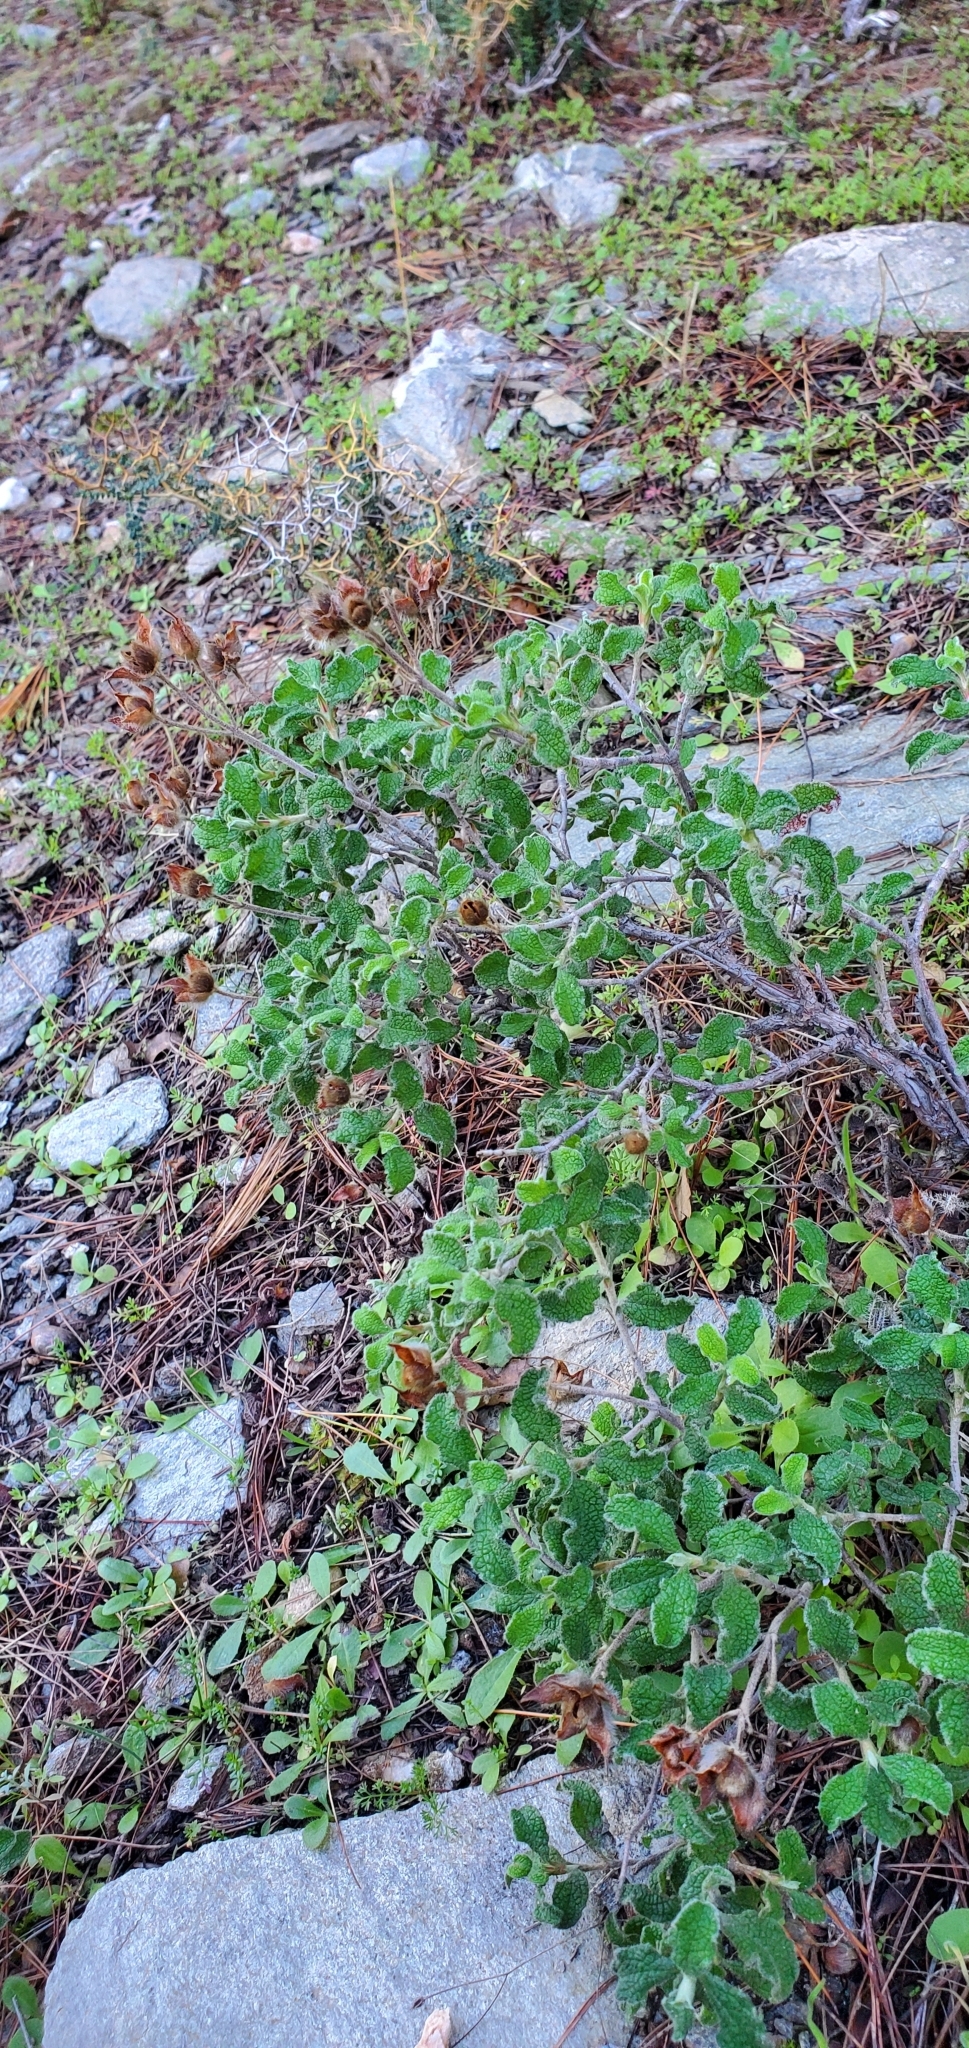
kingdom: Plantae
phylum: Tracheophyta
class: Magnoliopsida
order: Malvales
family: Cistaceae
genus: Cistus
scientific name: Cistus creticus
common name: Cretan rockrose
